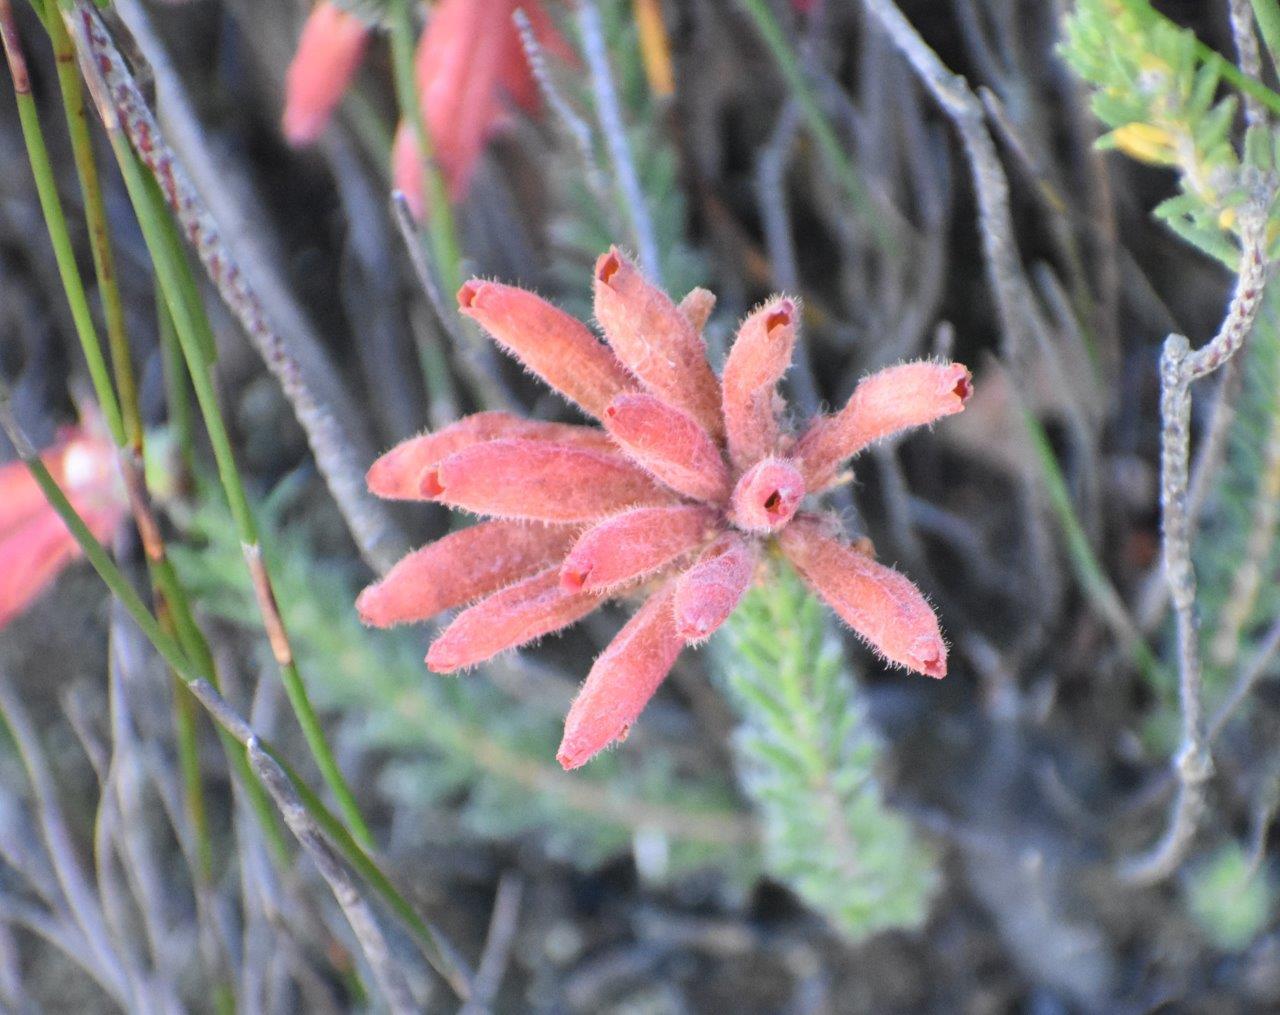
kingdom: Plantae
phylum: Tracheophyta
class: Magnoliopsida
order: Ericales
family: Ericaceae
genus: Erica
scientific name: Erica cerinthoides
